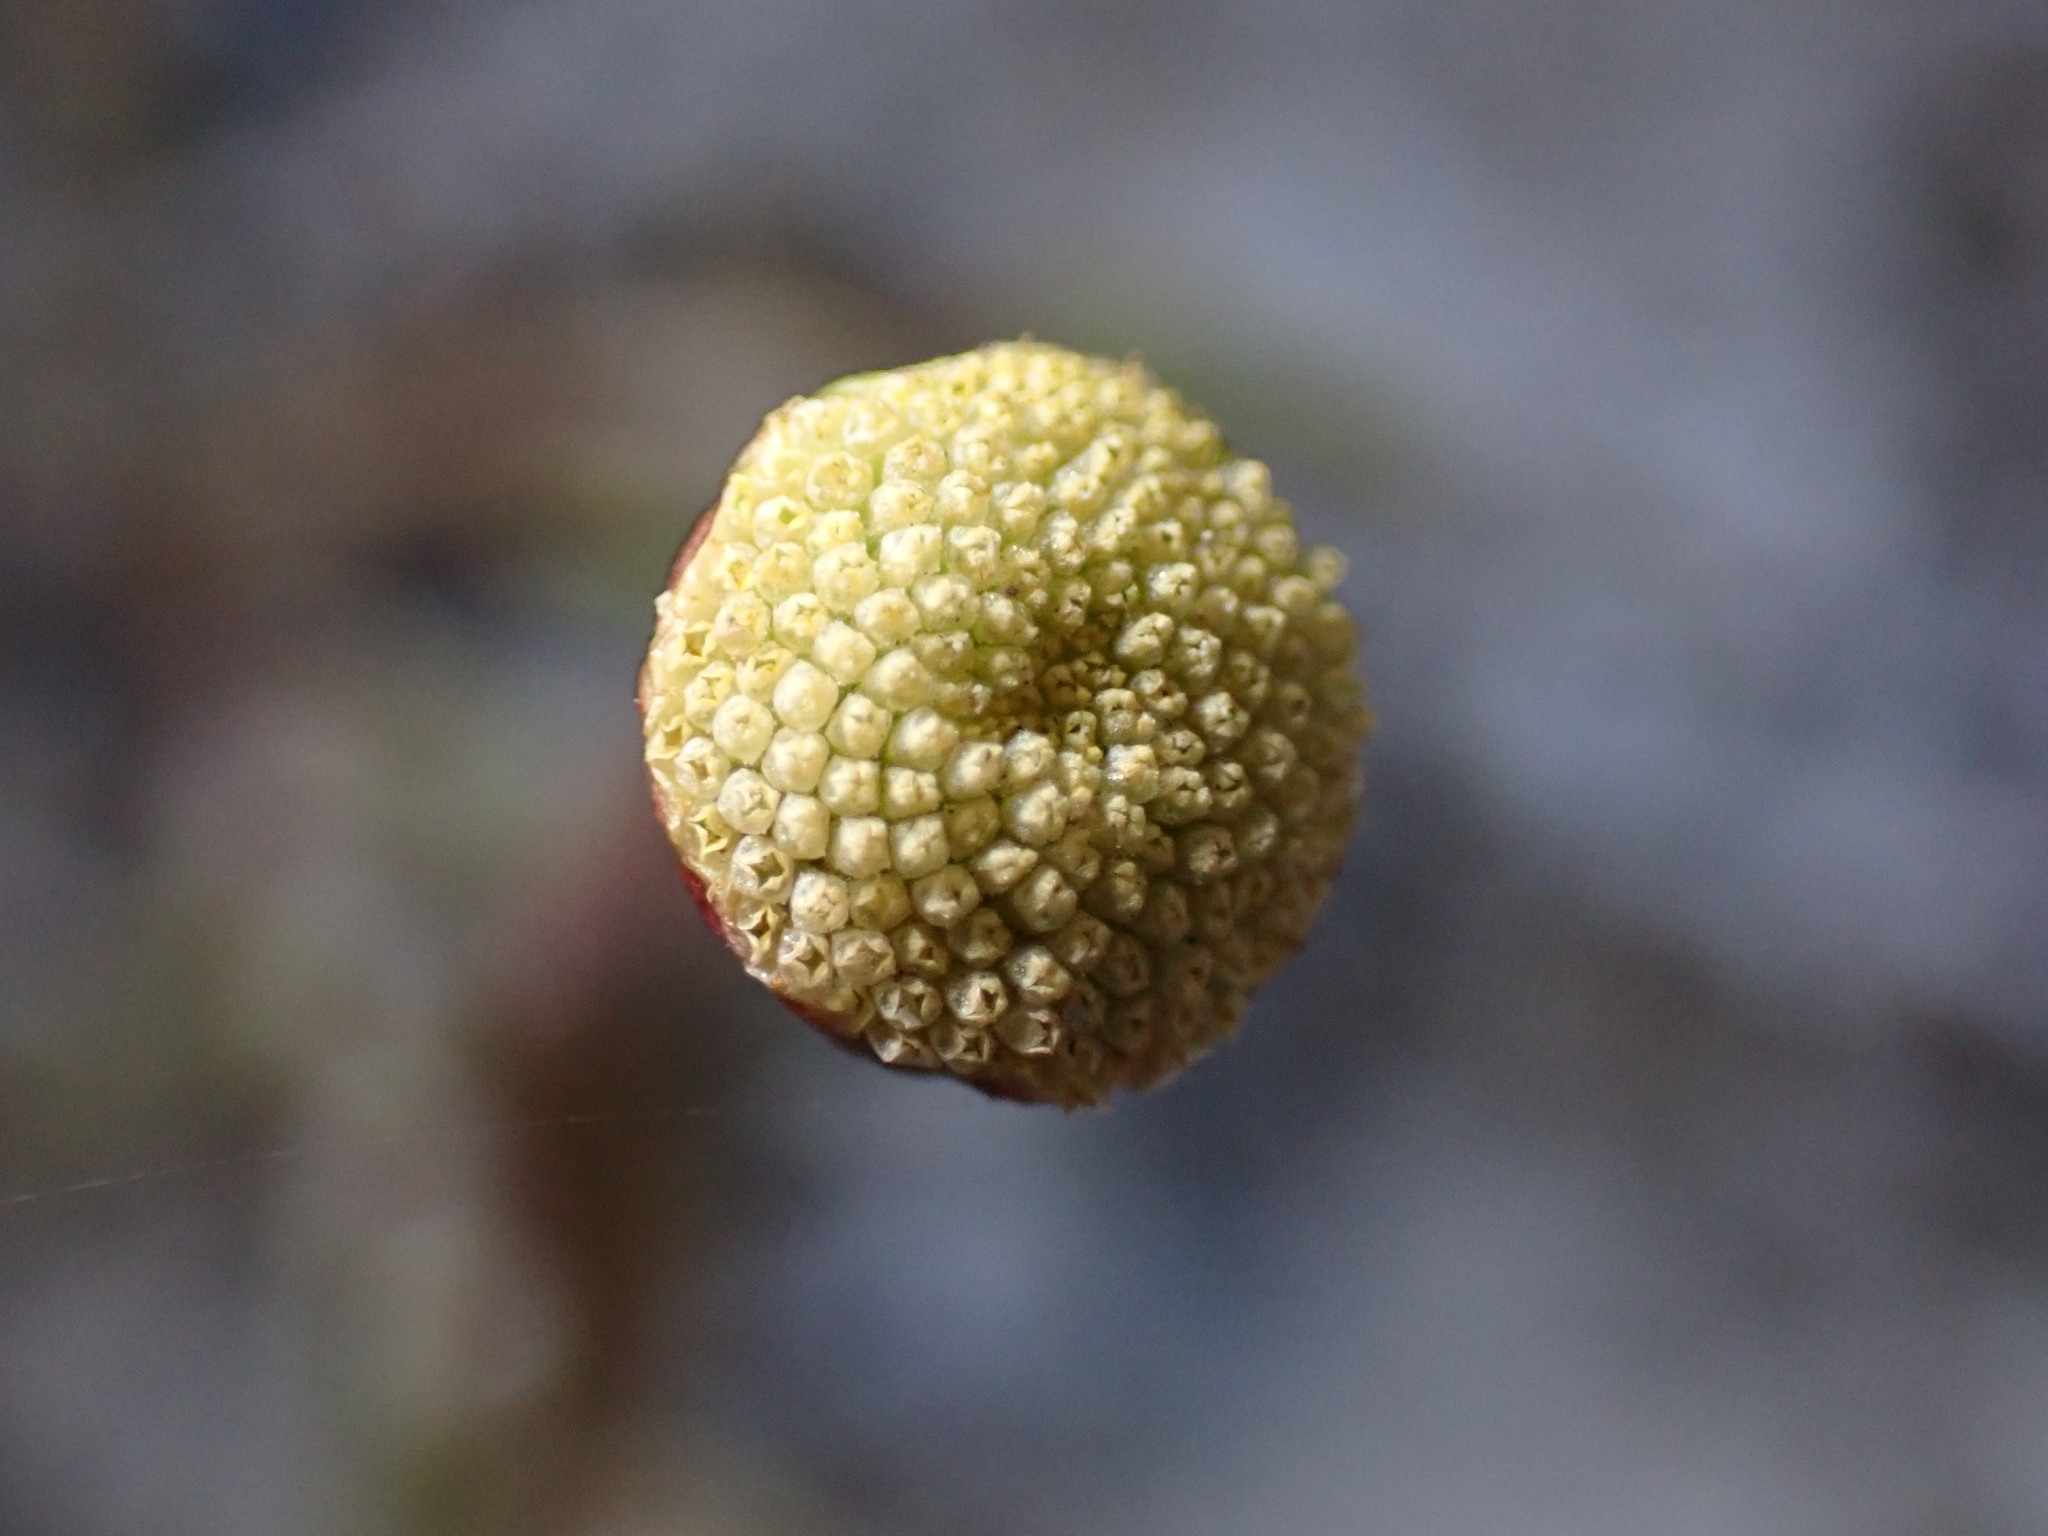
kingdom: Plantae
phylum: Tracheophyta
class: Magnoliopsida
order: Asterales
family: Asteraceae
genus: Cotula
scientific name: Cotula coronopifolia
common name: Buttonweed
